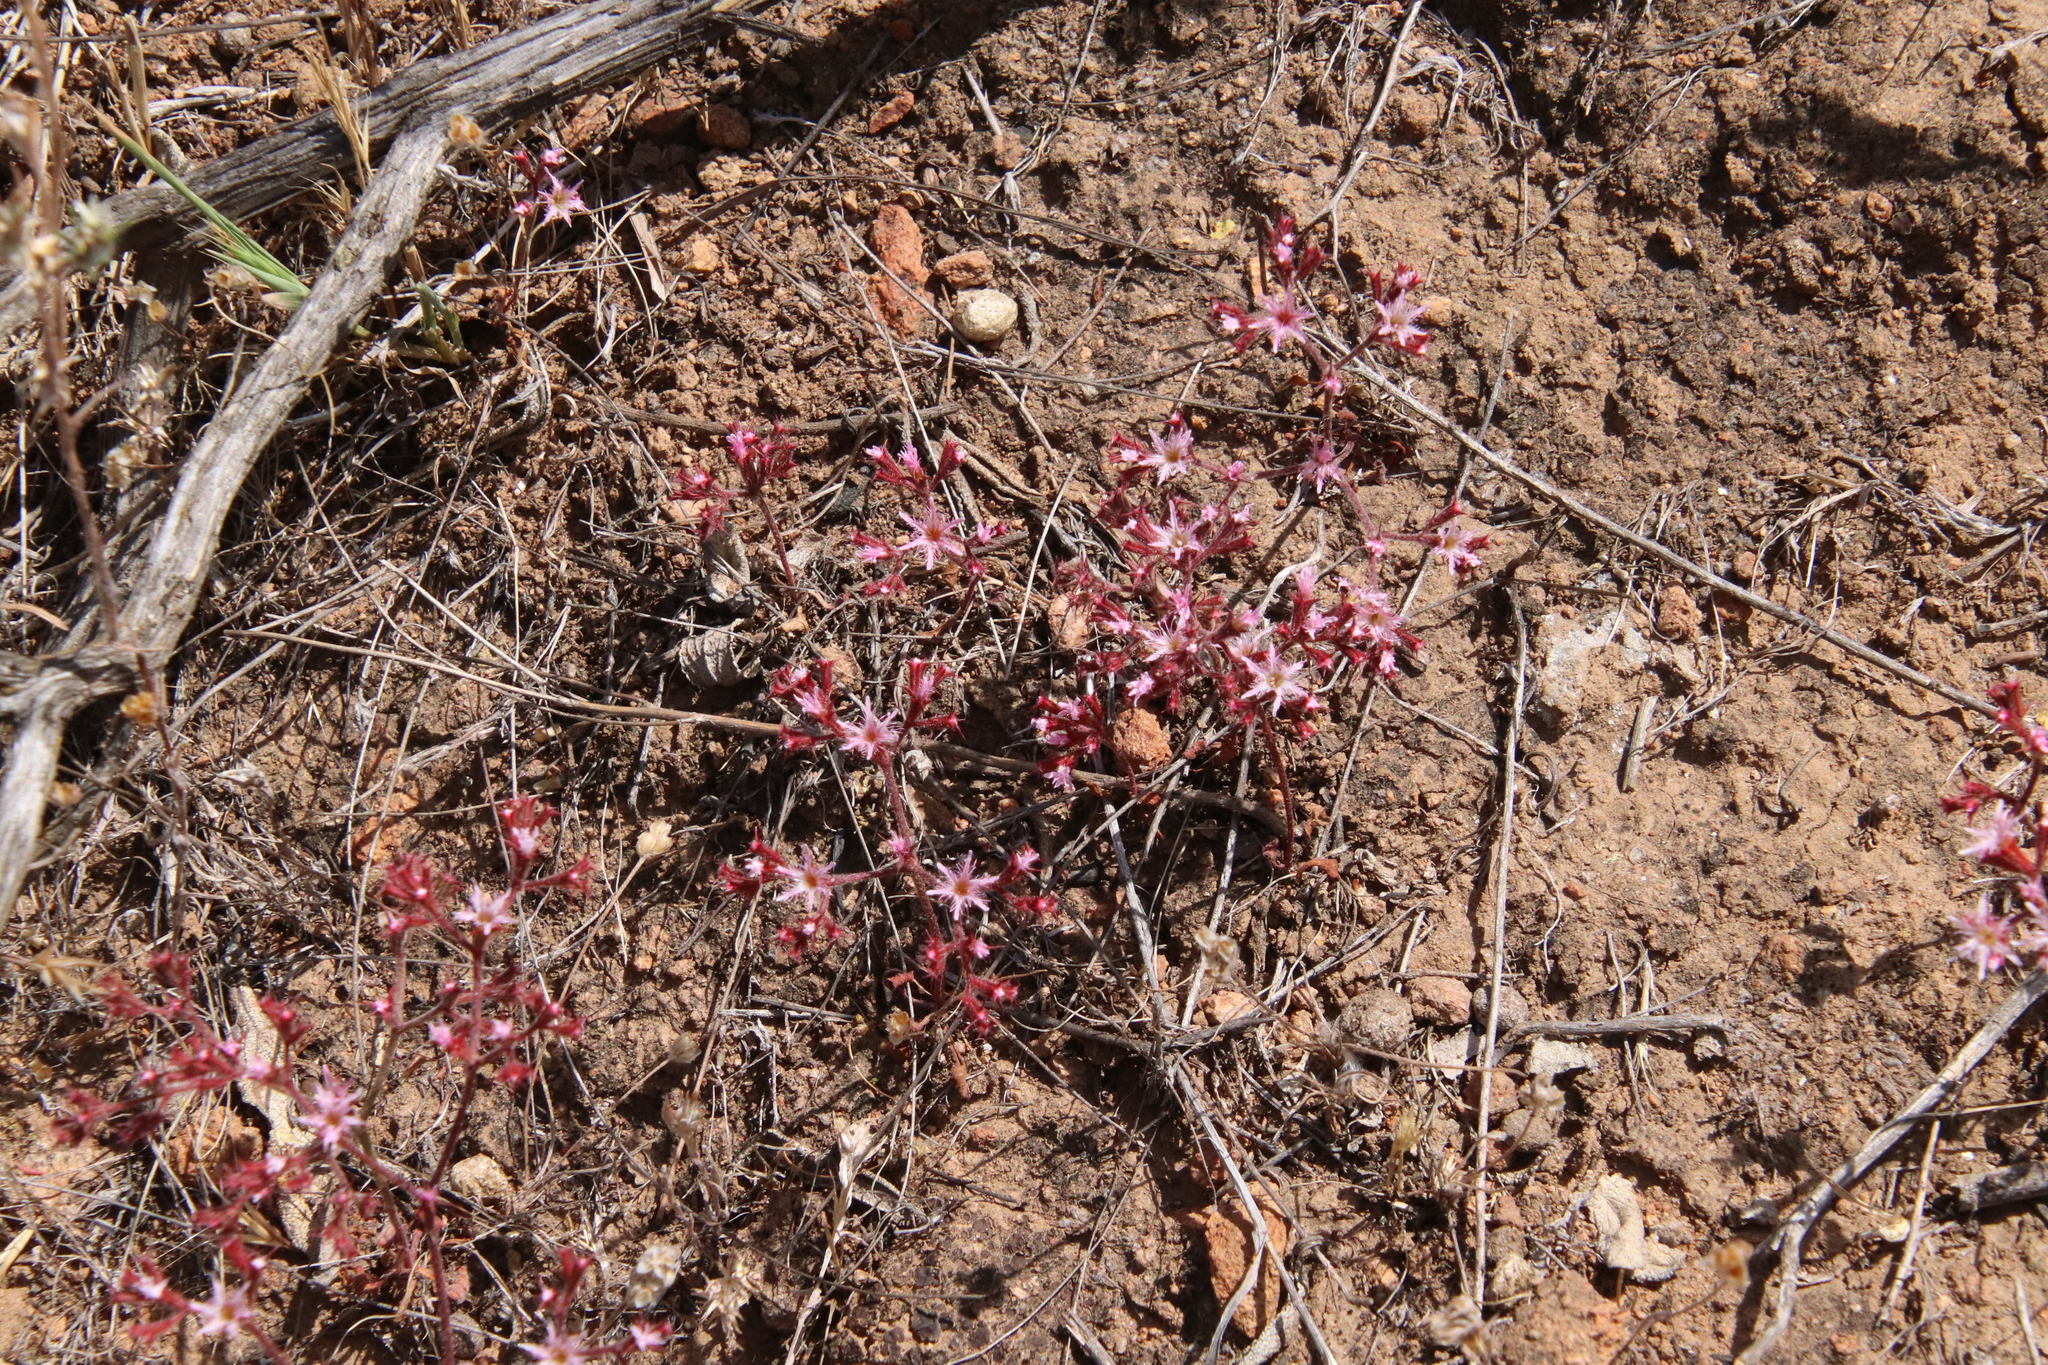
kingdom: Plantae
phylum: Tracheophyta
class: Magnoliopsida
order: Caryophyllales
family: Polygonaceae
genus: Chorizanthe
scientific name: Chorizanthe fimbriata
